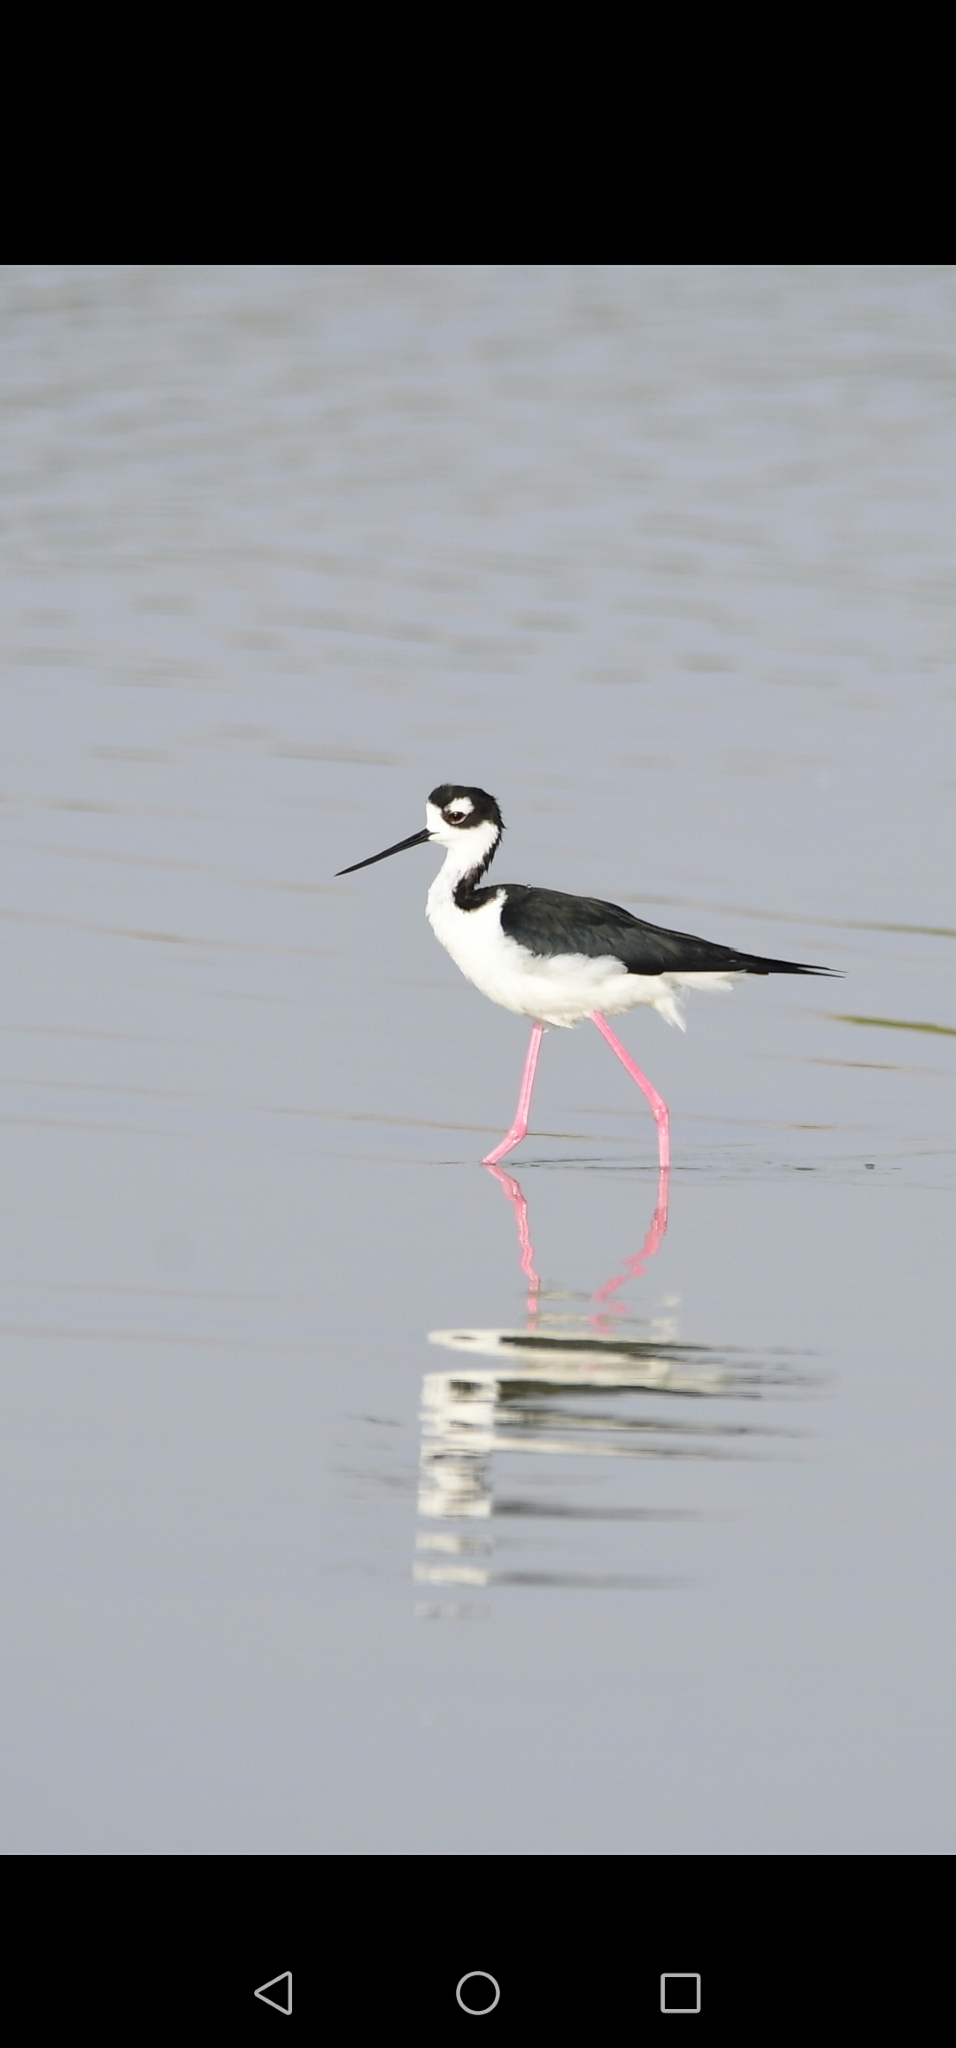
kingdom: Animalia
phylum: Chordata
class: Aves
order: Charadriiformes
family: Recurvirostridae
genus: Himantopus
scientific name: Himantopus mexicanus
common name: Black-necked stilt
